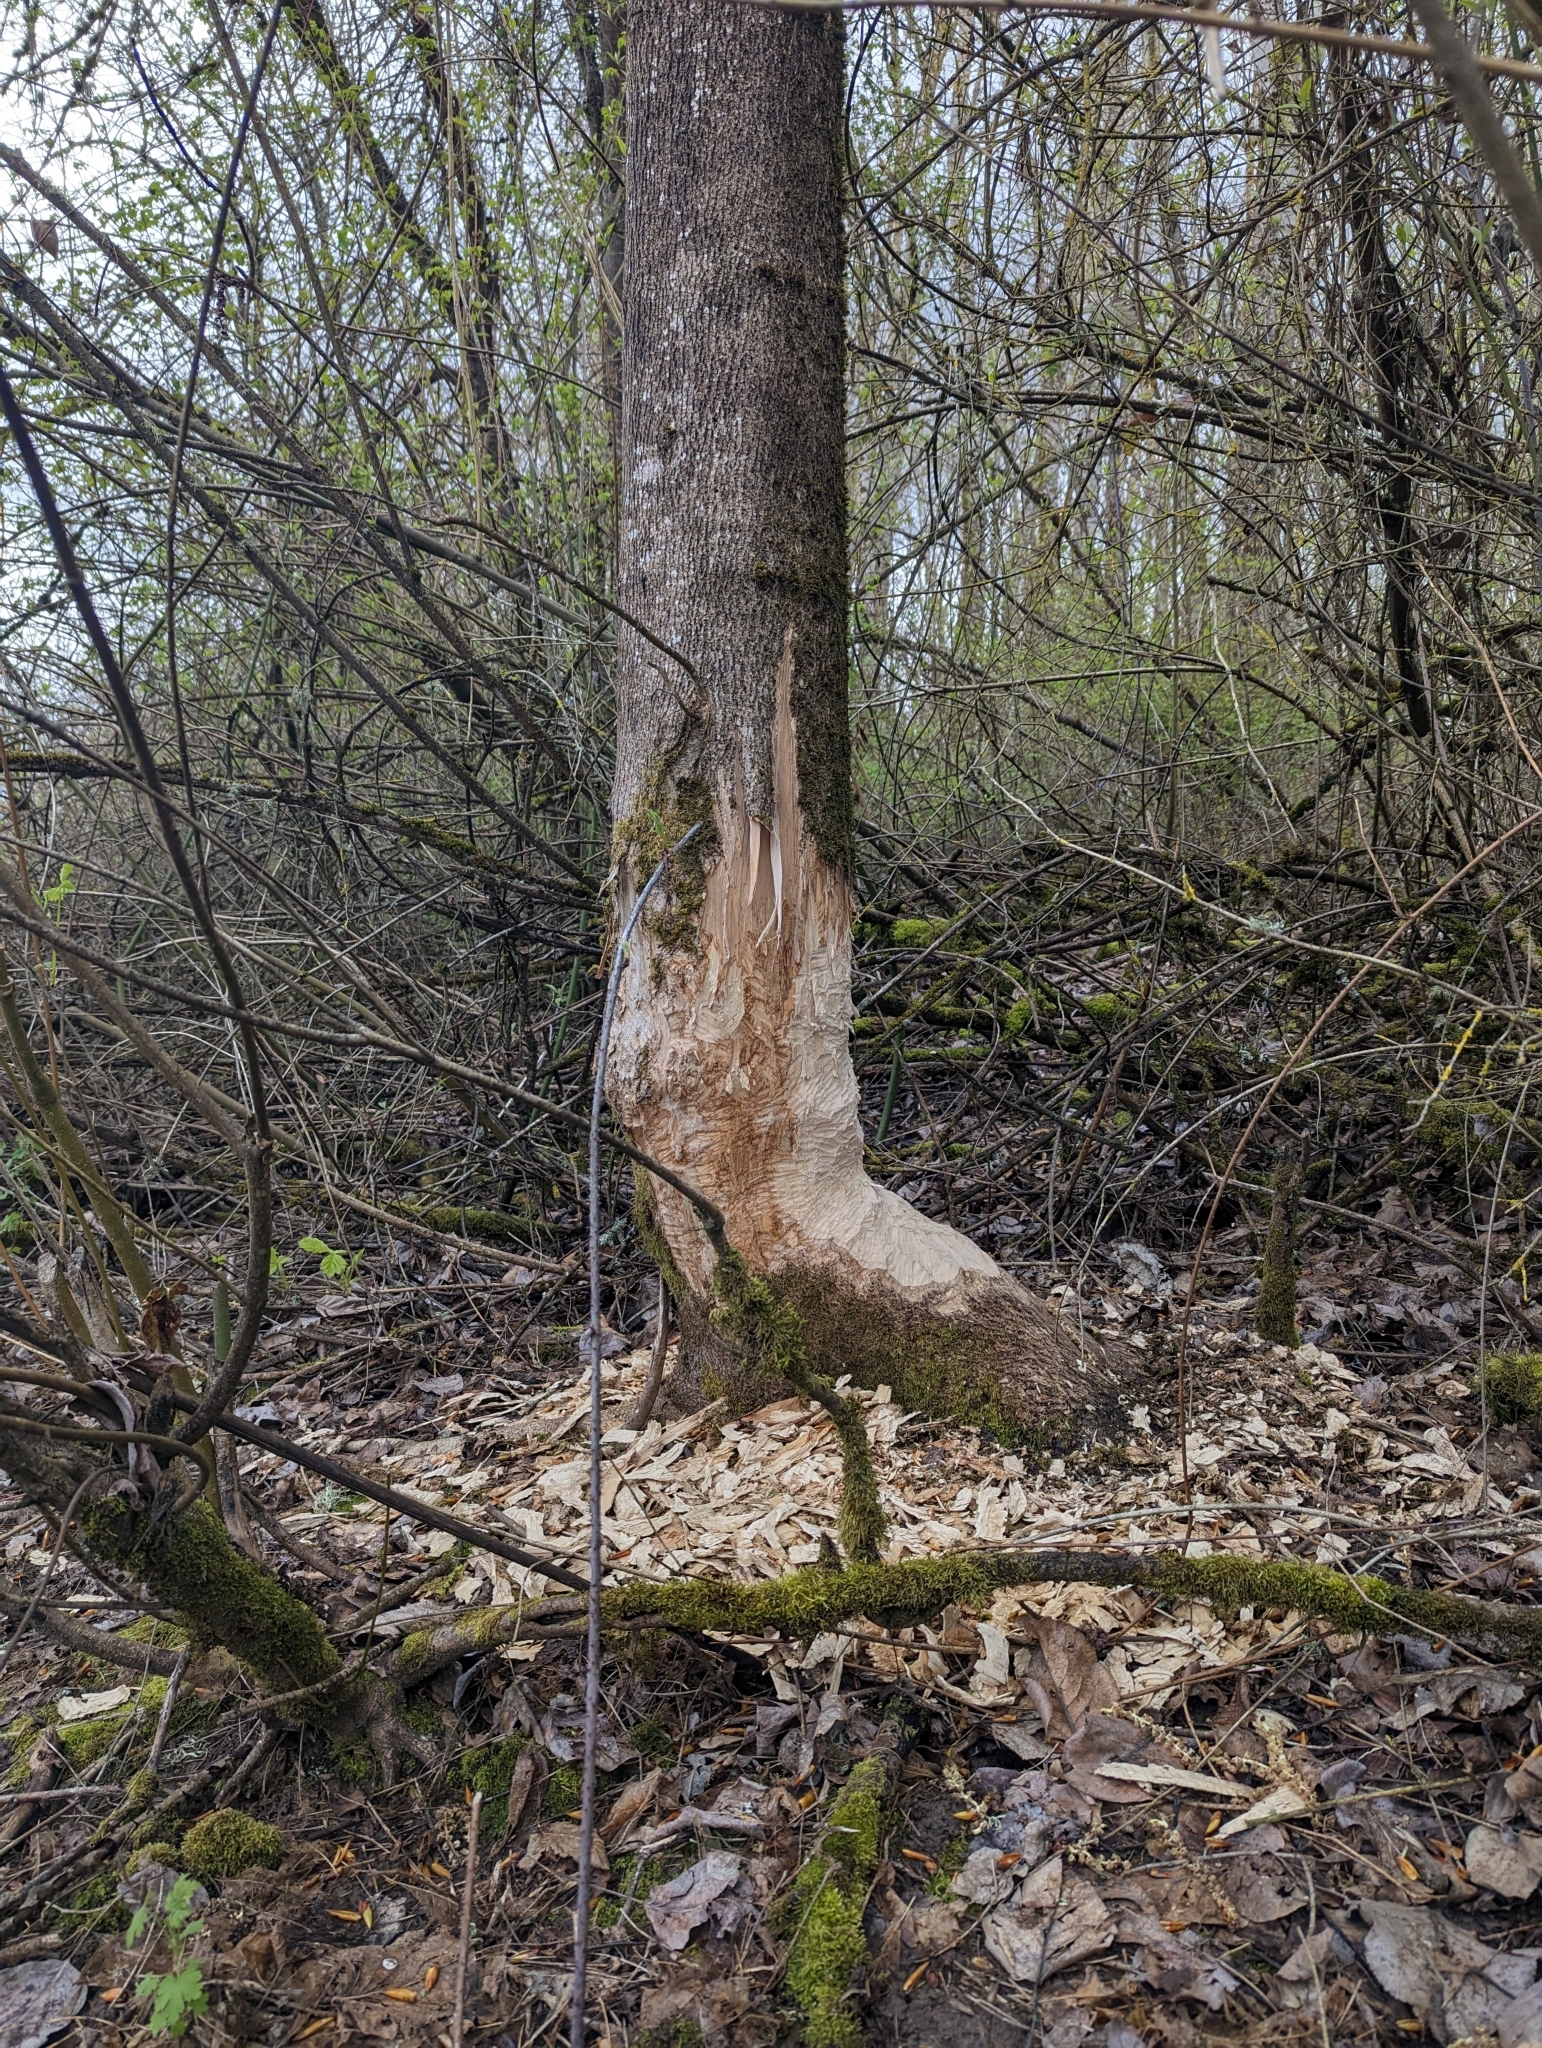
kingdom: Animalia
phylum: Chordata
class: Mammalia
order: Rodentia
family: Castoridae
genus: Castor
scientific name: Castor canadensis
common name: American beaver
